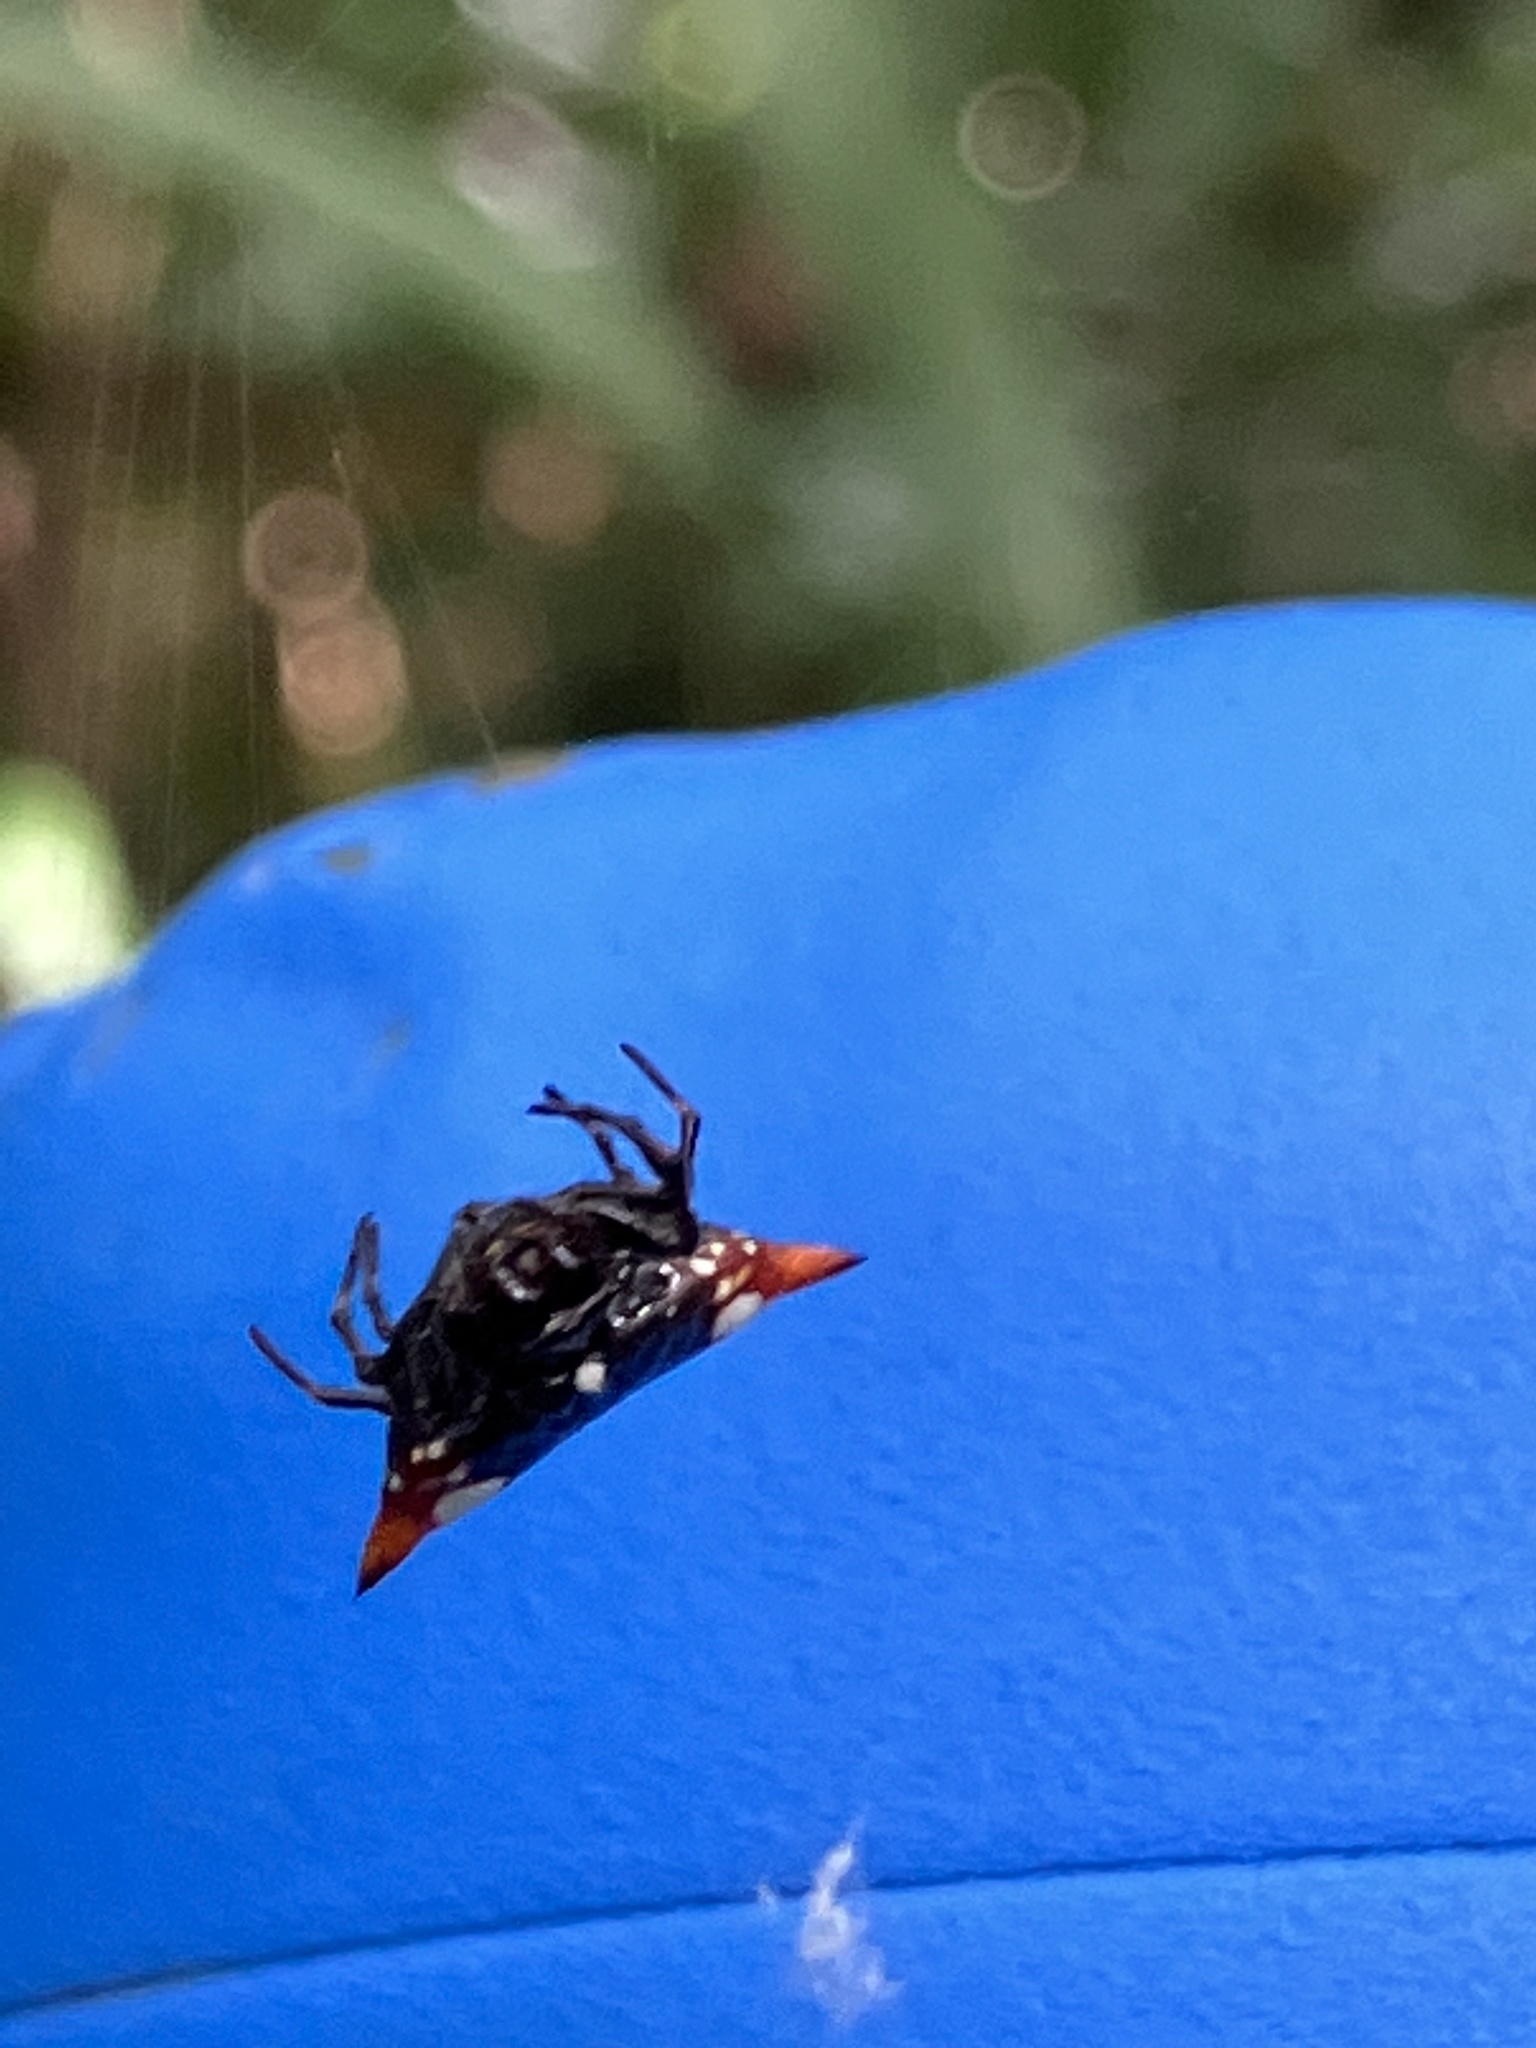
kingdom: Animalia
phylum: Arthropoda
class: Arachnida
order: Araneae
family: Araneidae
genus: Gasteracantha
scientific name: Gasteracantha cancriformis
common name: Orb weavers
